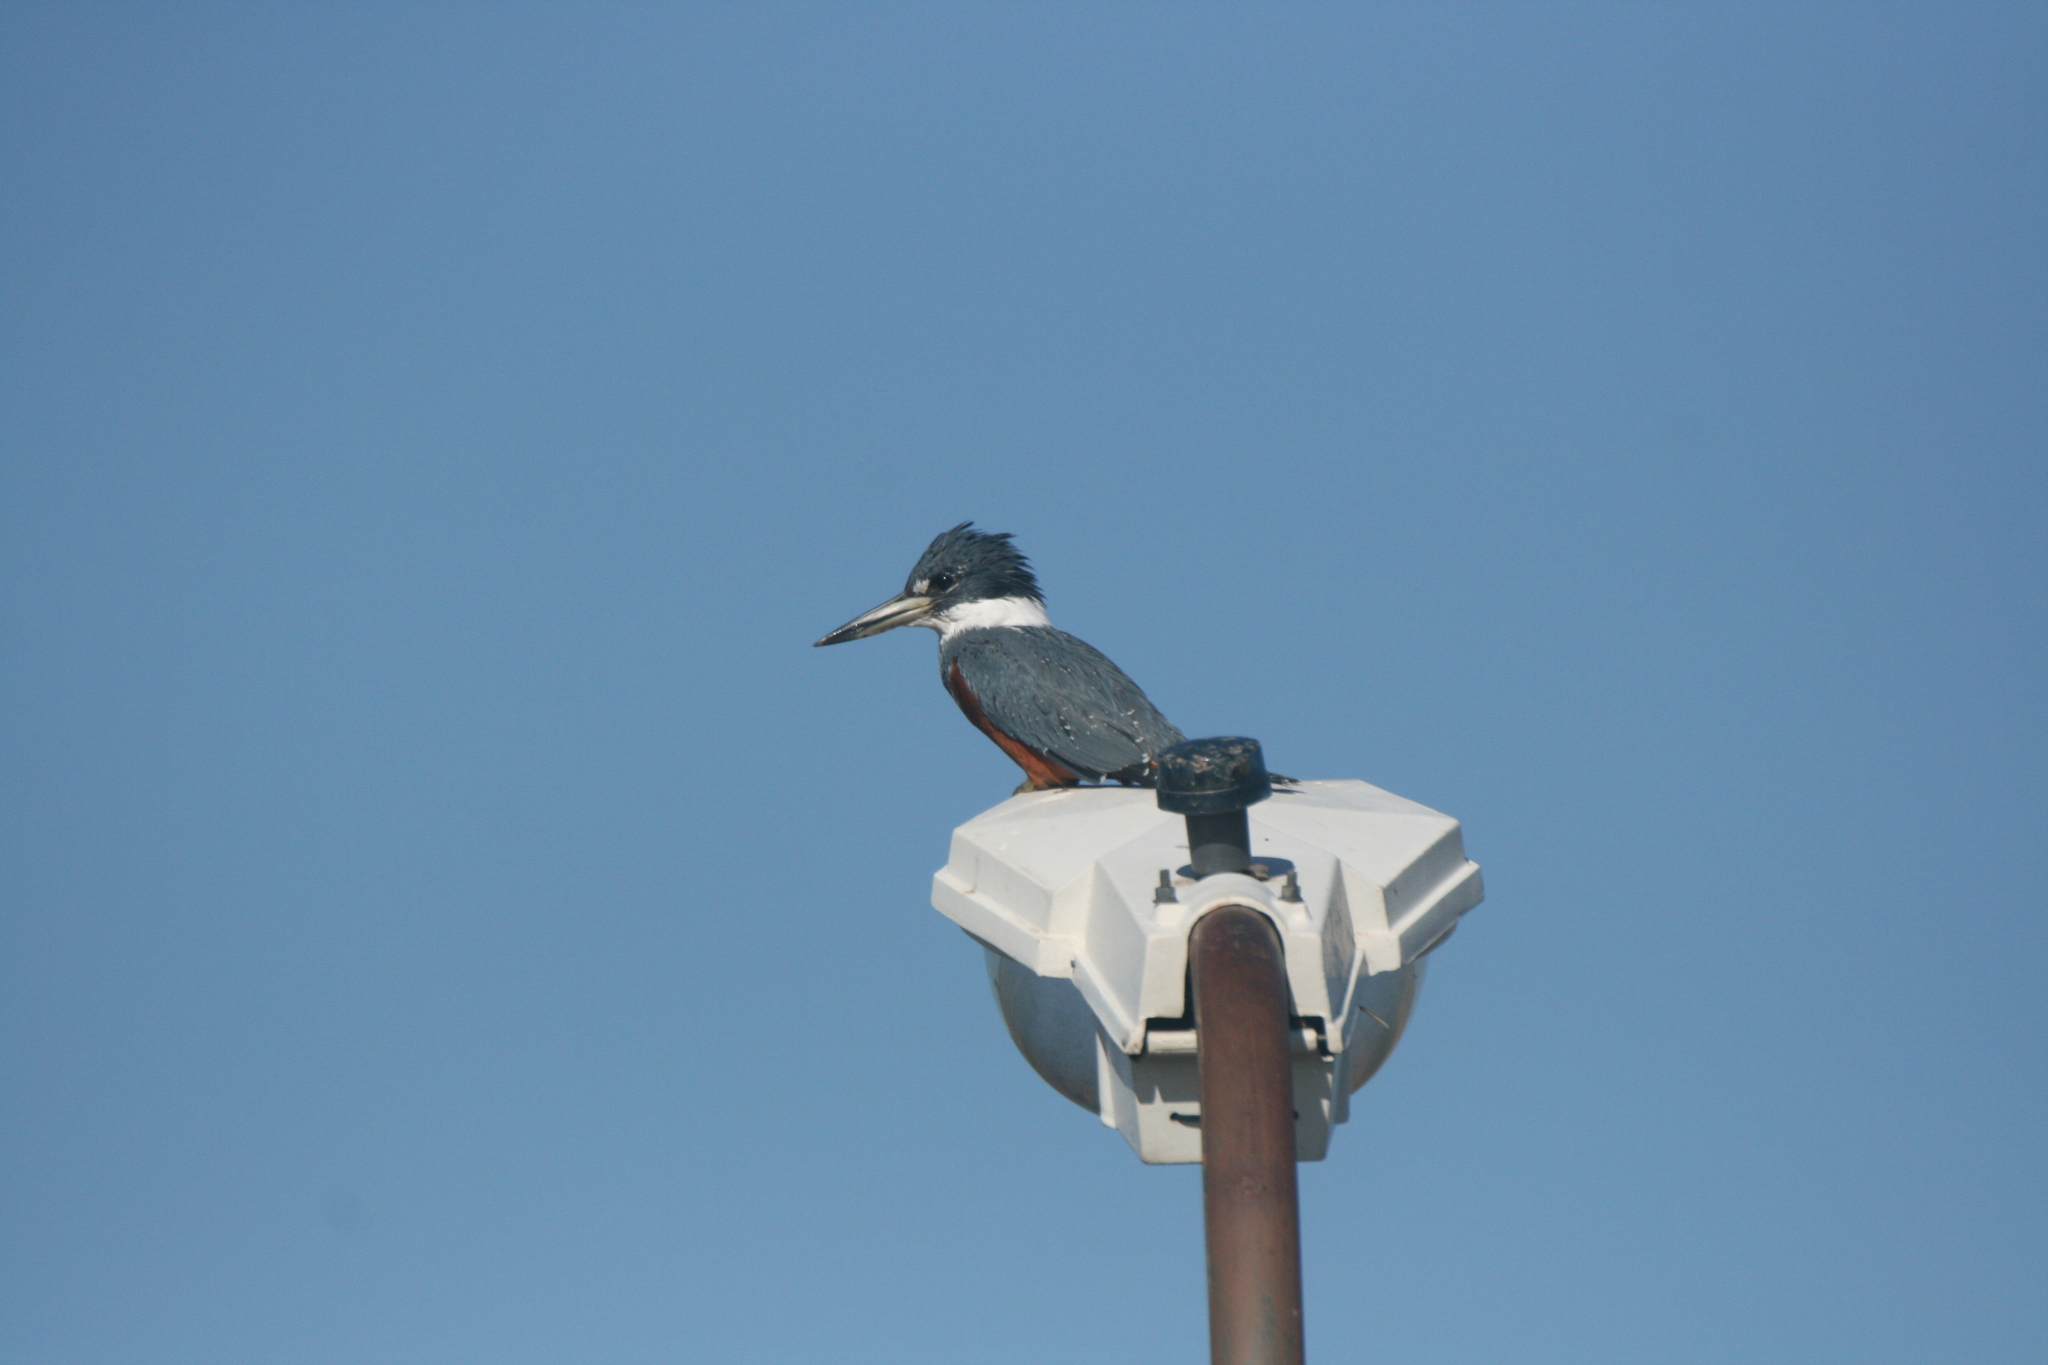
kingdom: Animalia
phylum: Chordata
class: Aves
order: Coraciiformes
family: Alcedinidae
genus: Megaceryle
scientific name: Megaceryle torquata
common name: Ringed kingfisher
